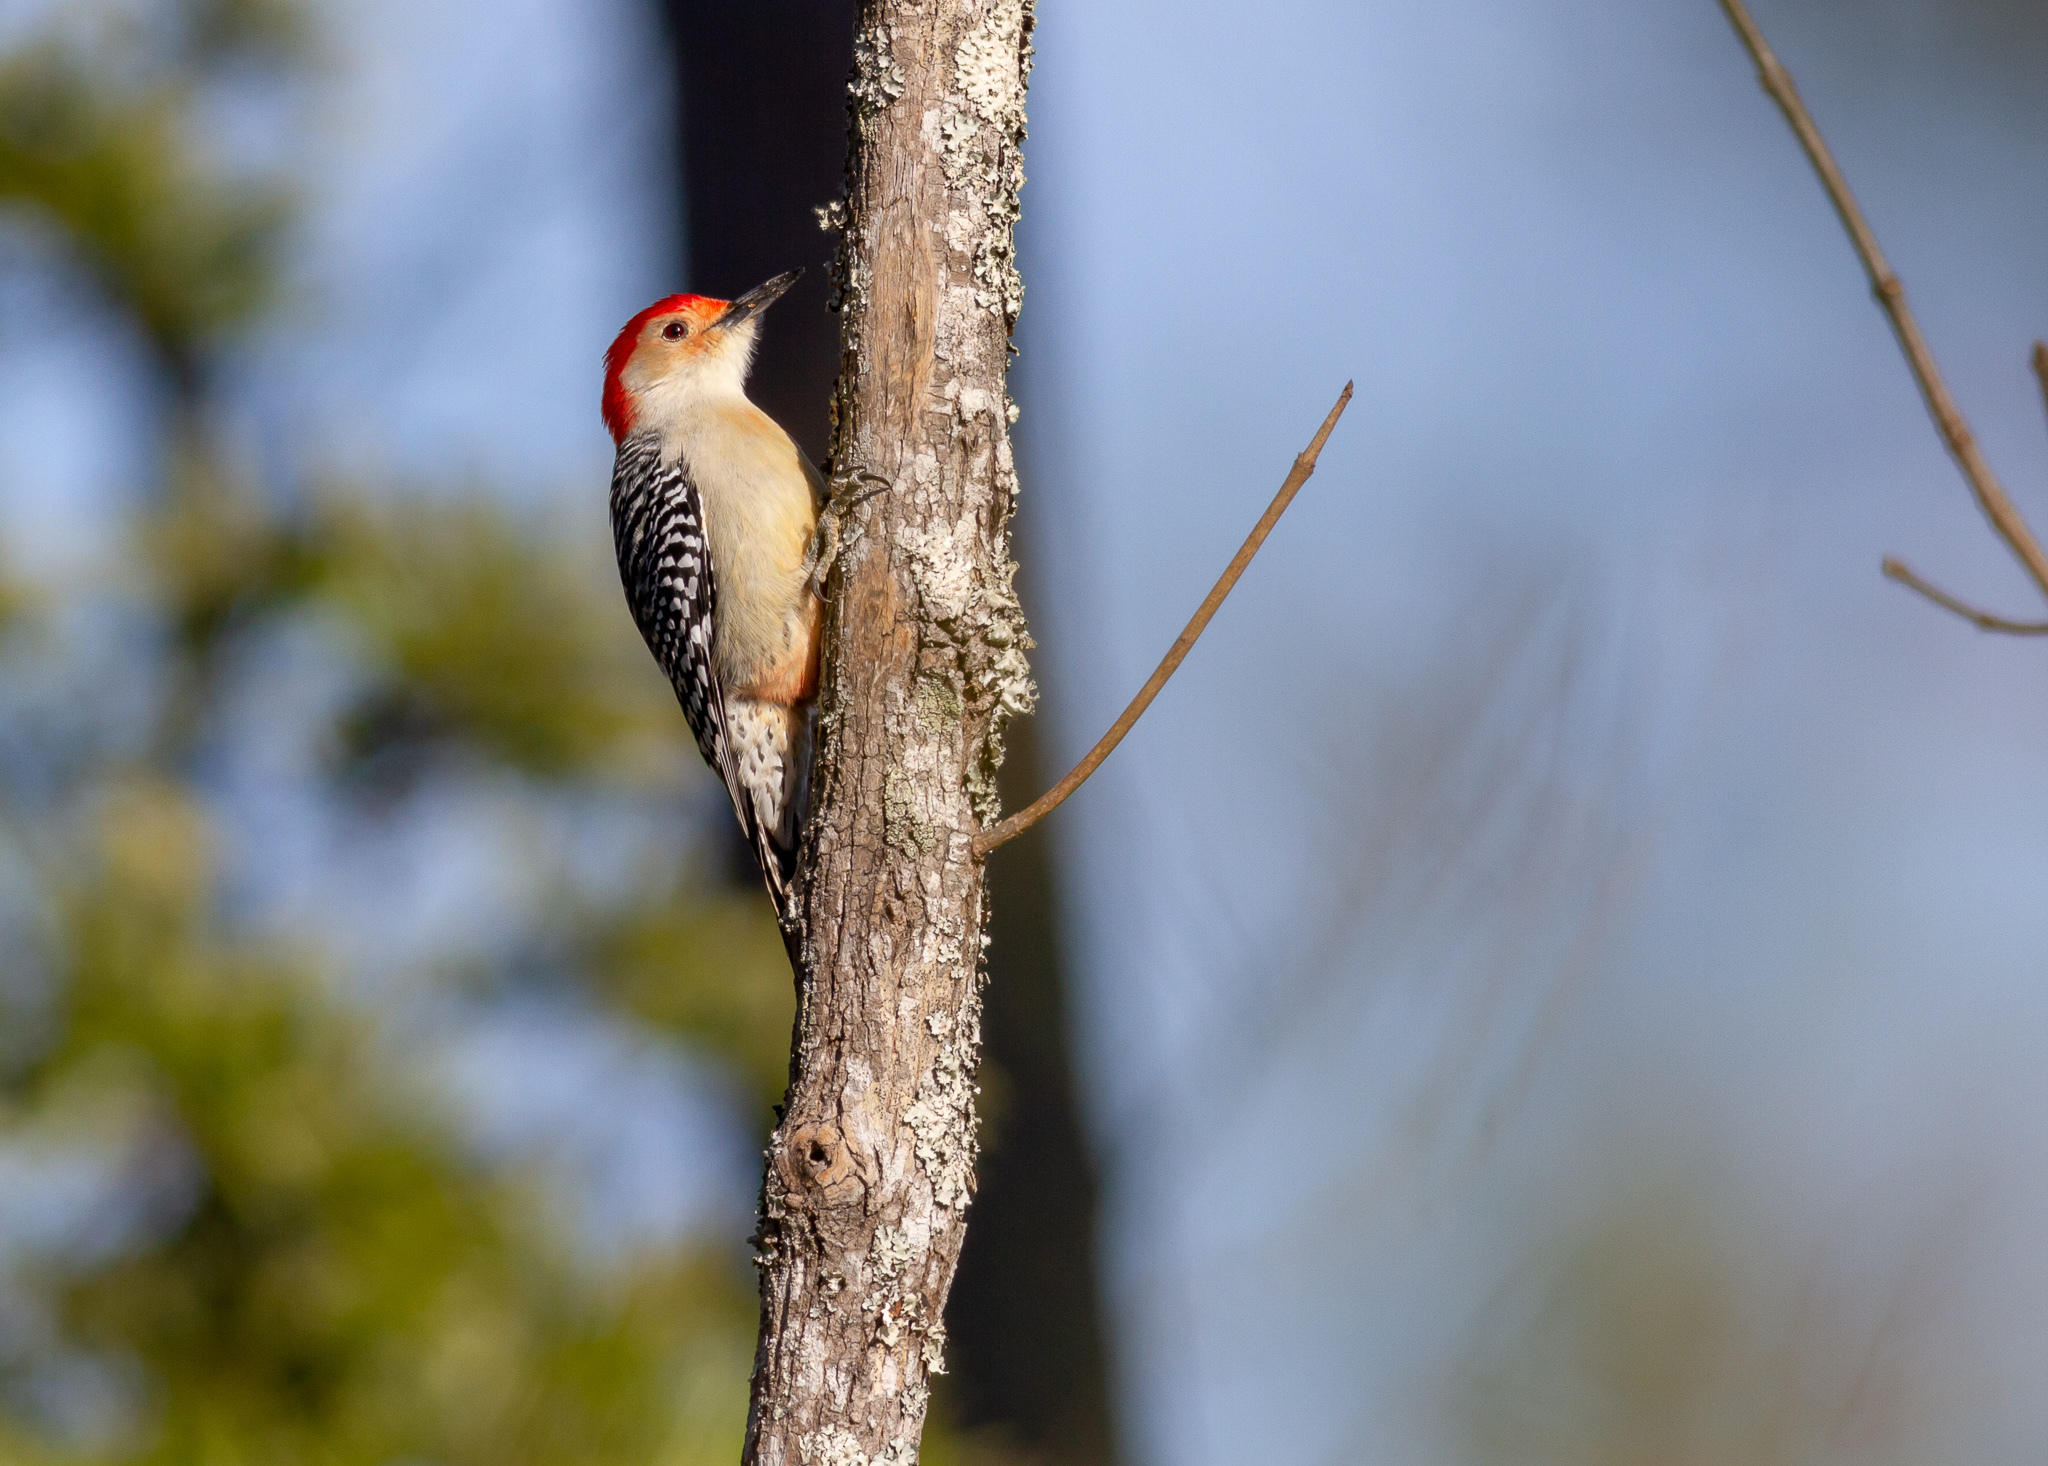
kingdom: Animalia
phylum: Chordata
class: Aves
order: Piciformes
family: Picidae
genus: Melanerpes
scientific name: Melanerpes carolinus
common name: Red-bellied woodpecker
